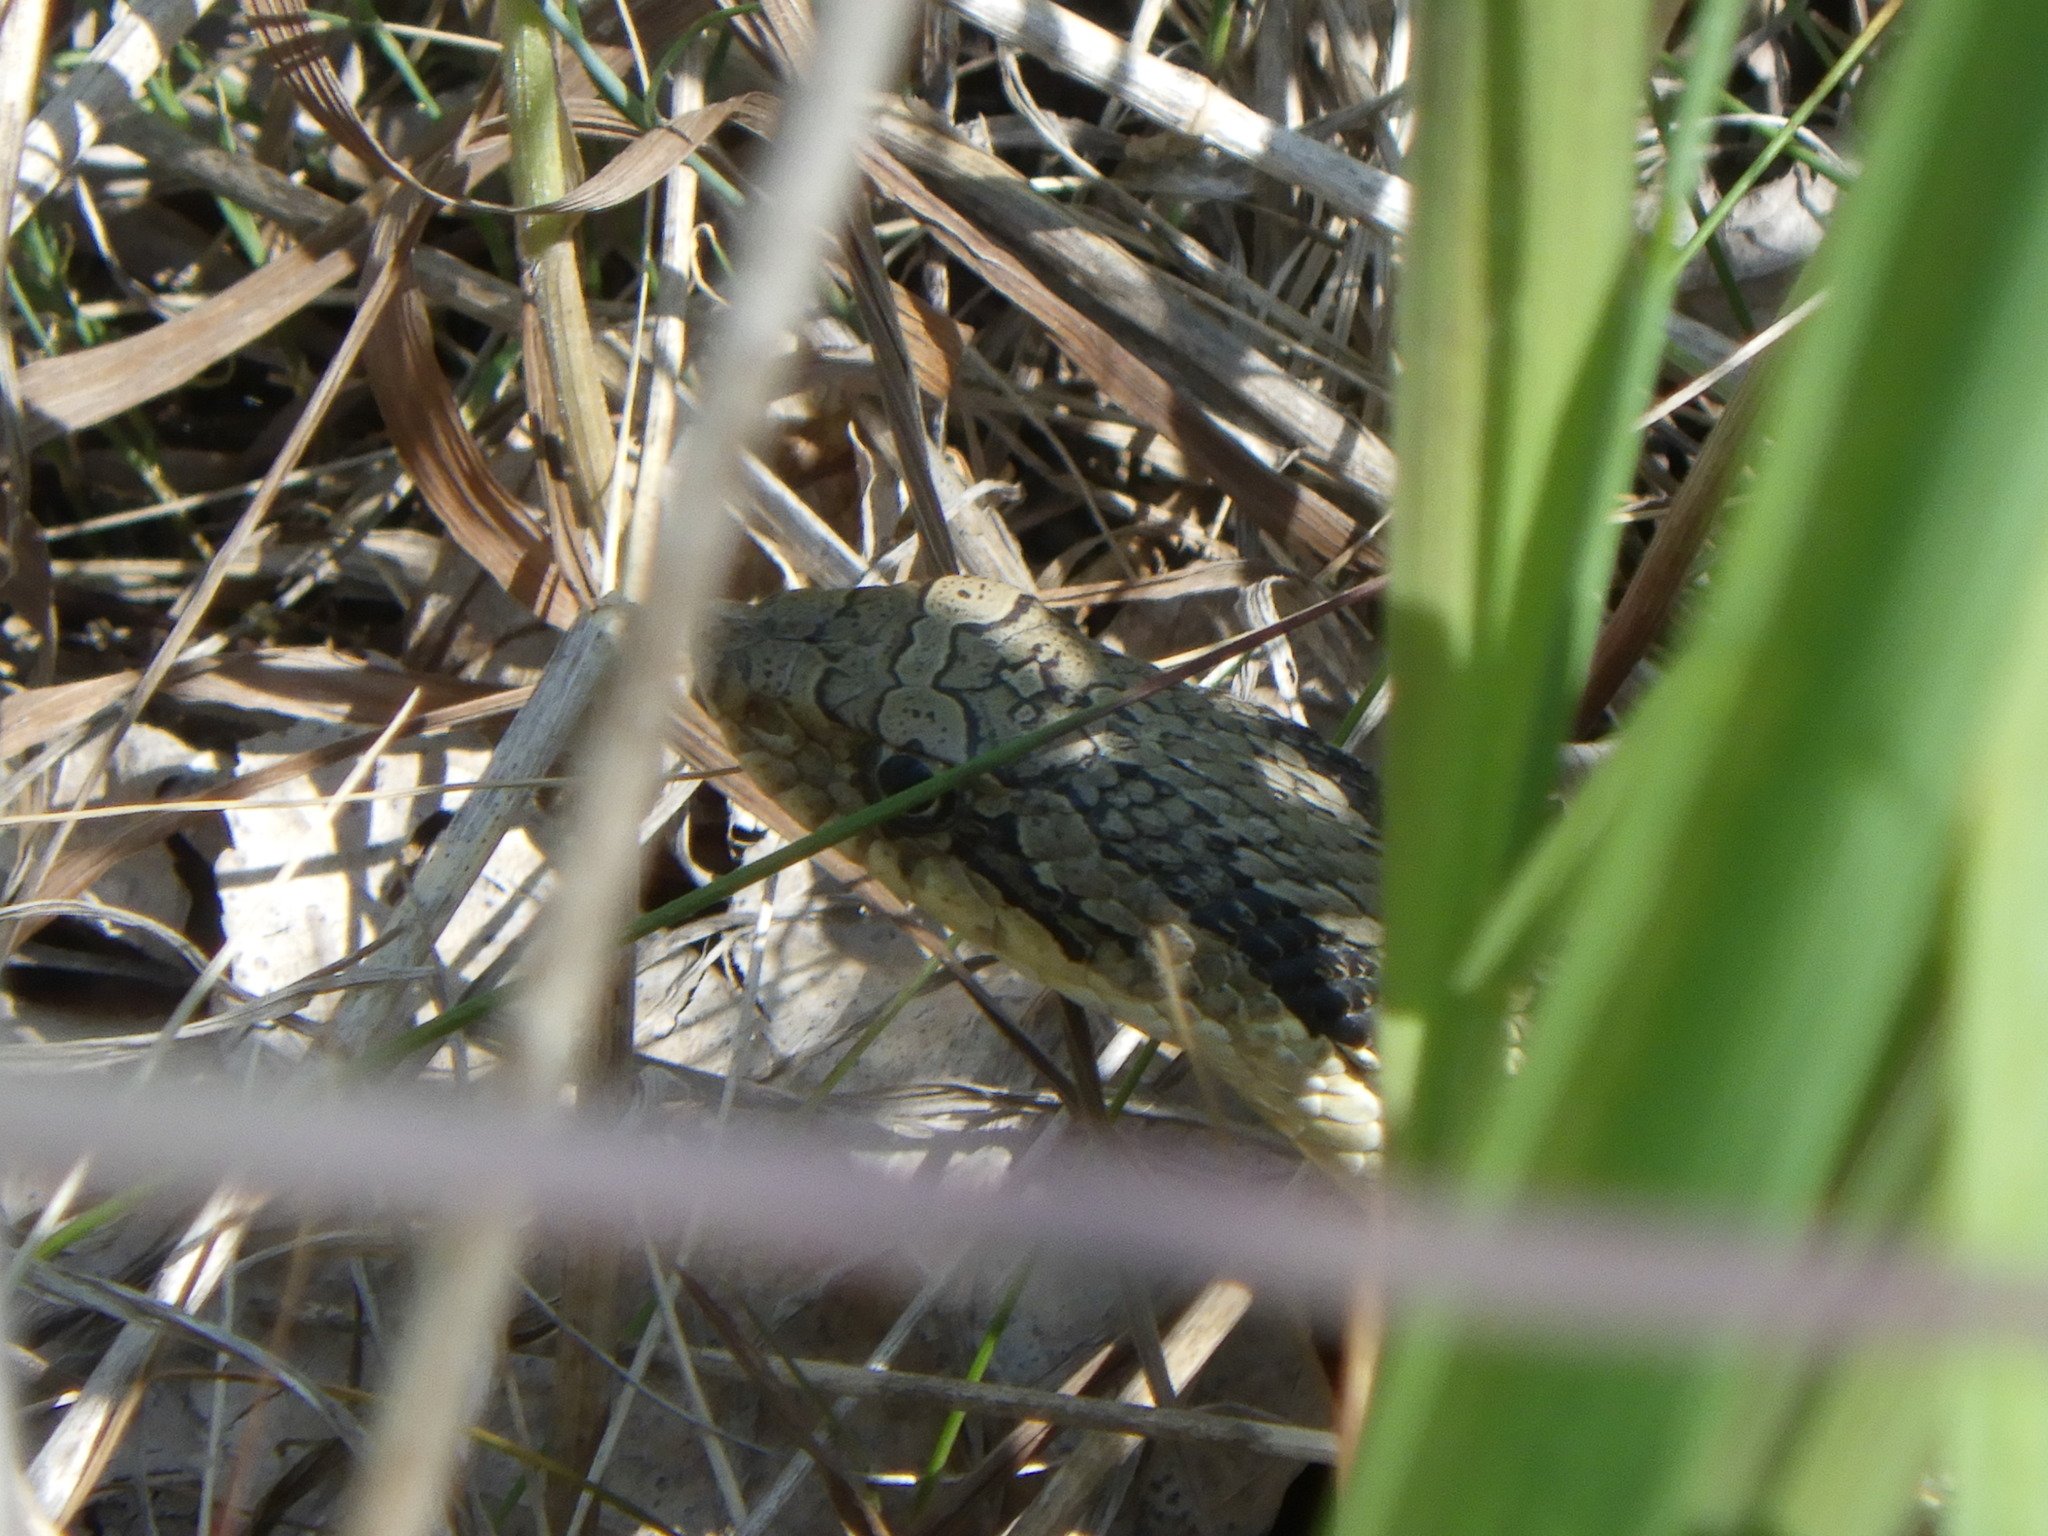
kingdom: Animalia
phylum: Chordata
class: Squamata
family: Colubridae
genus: Heterodon
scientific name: Heterodon platirhinos
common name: Eastern hognose snake
